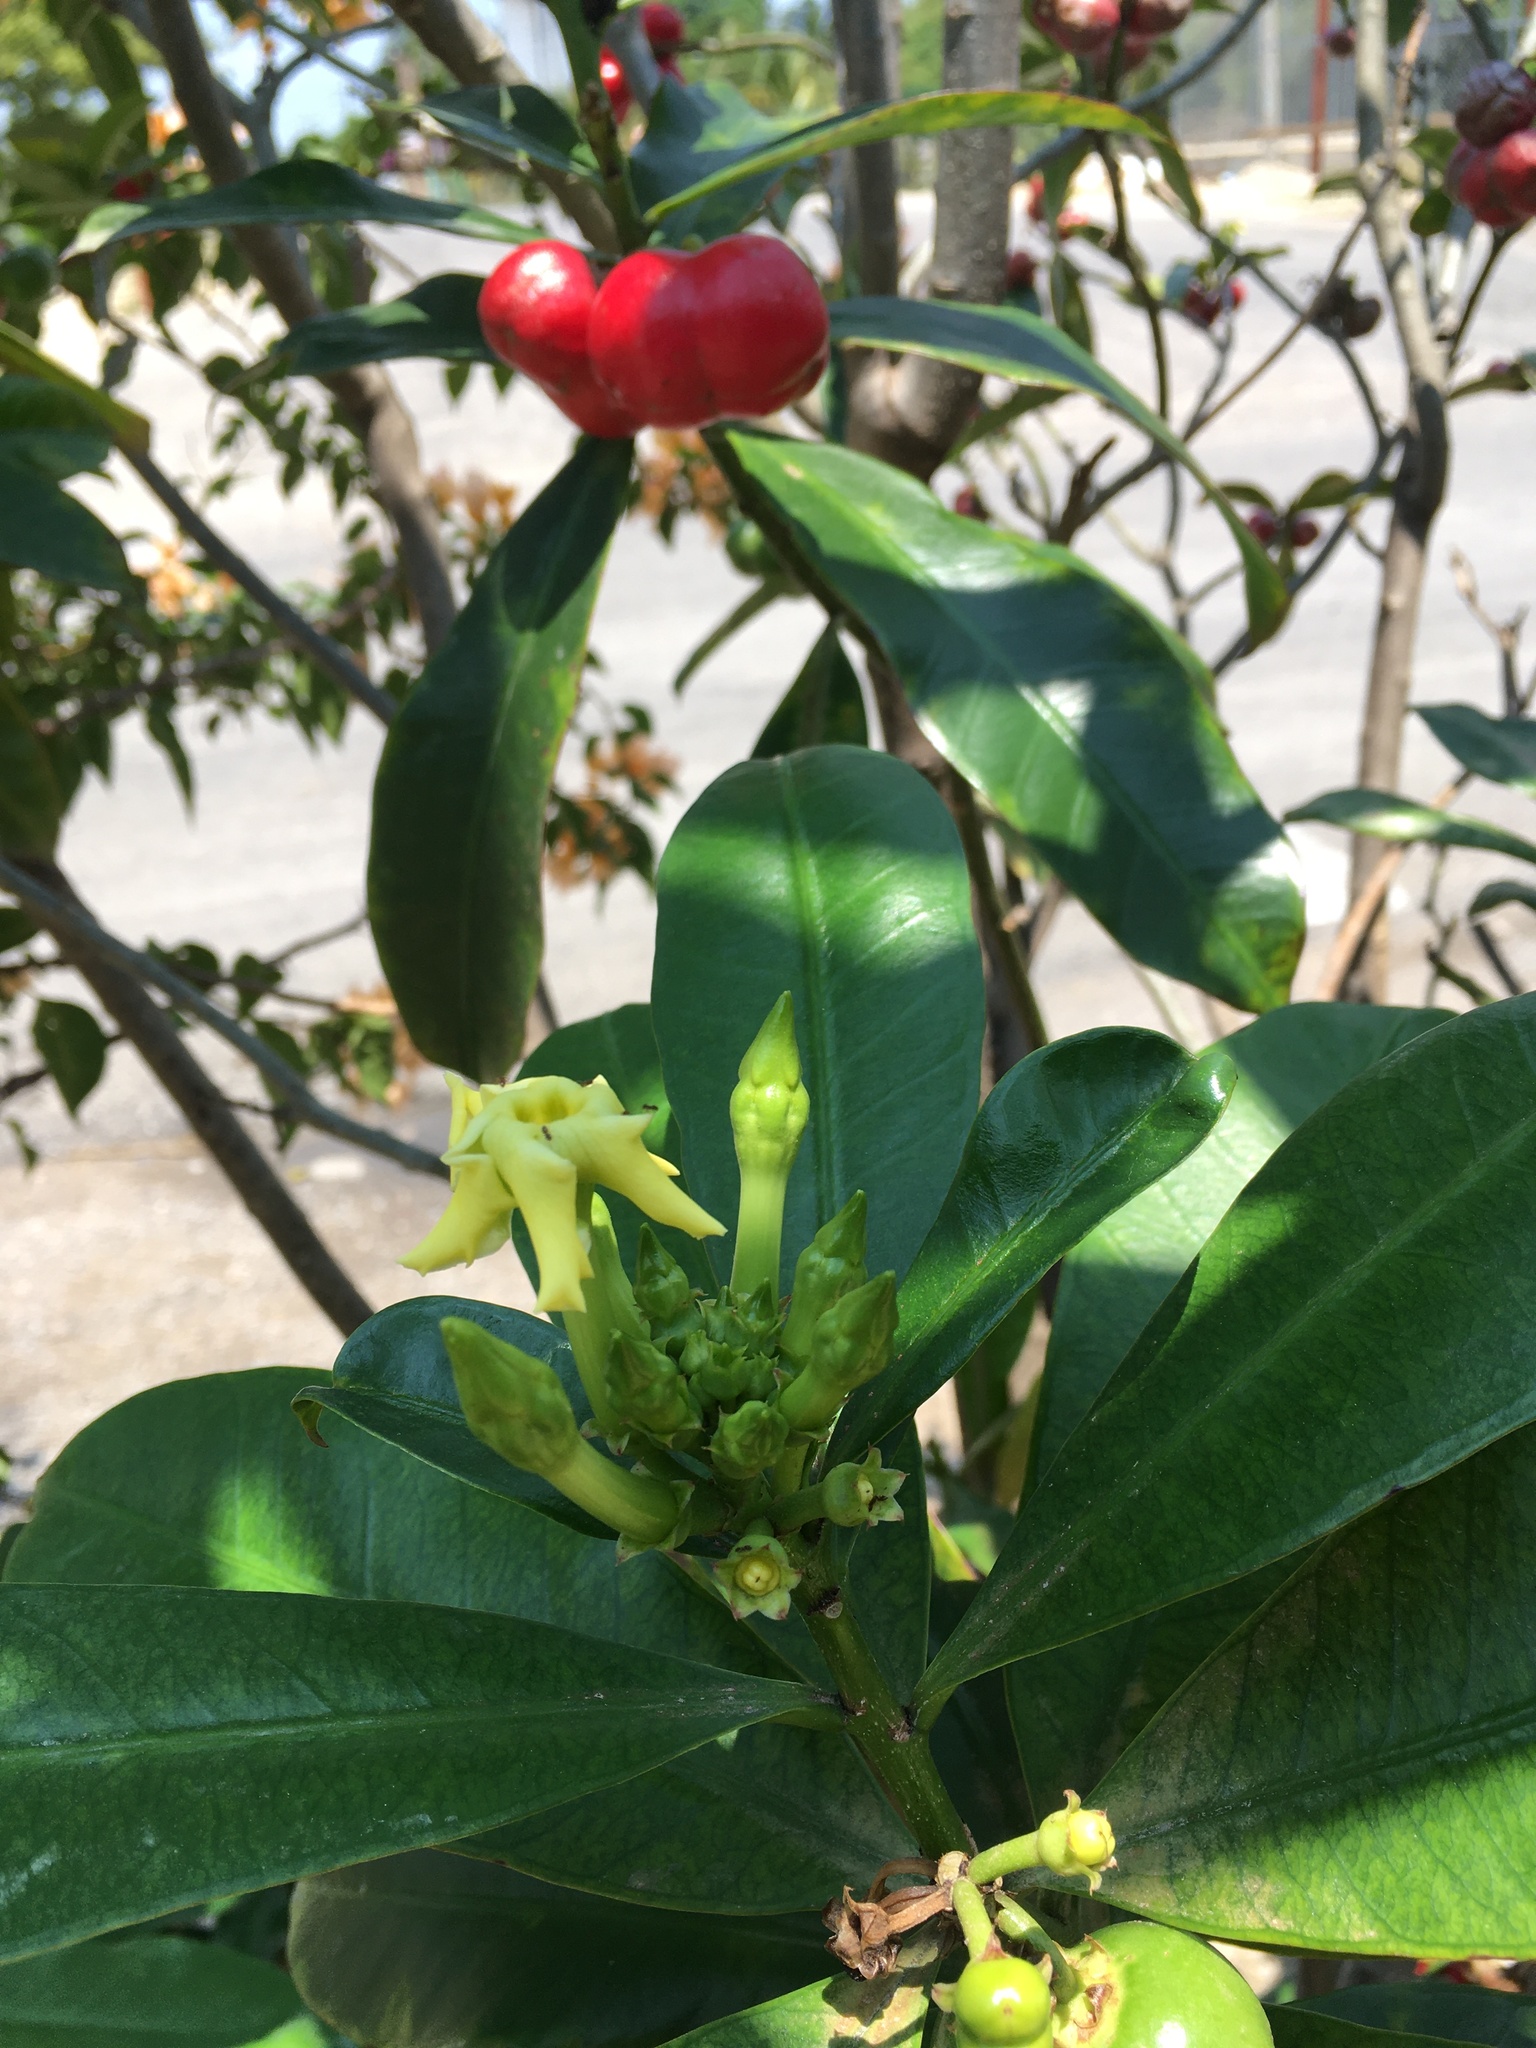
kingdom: Plantae
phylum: Tracheophyta
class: Magnoliopsida
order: Gentianales
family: Apocynaceae
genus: Thevetia
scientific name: Thevetia ahouai
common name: Broadleaf thevetia
